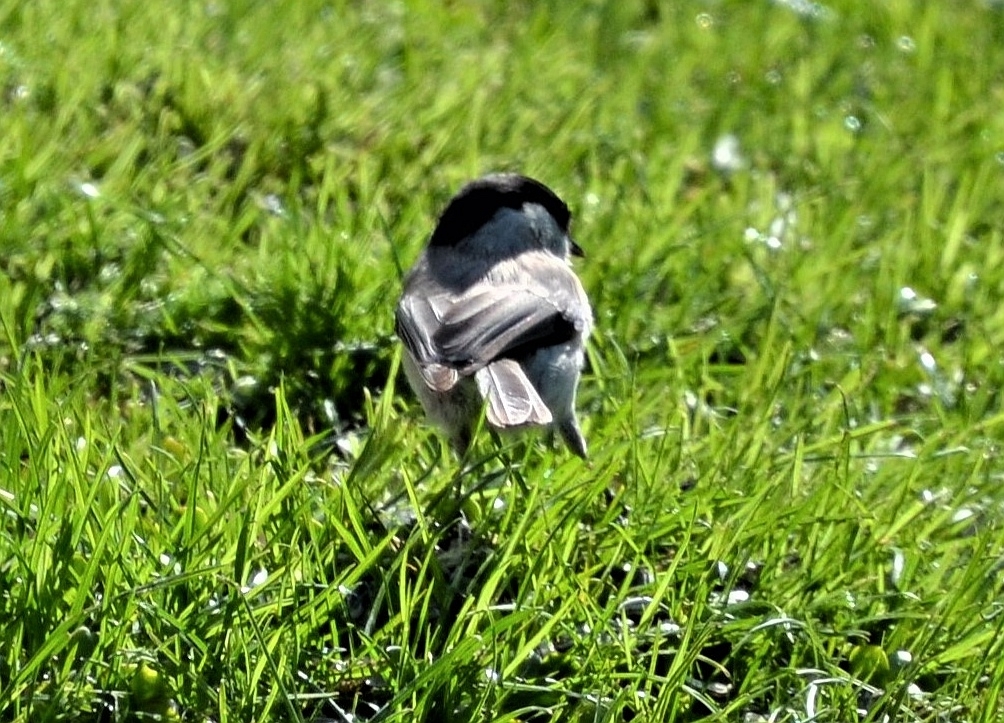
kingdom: Animalia
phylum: Chordata
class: Aves
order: Passeriformes
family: Paridae
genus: Periparus
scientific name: Periparus ater
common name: Coal tit
